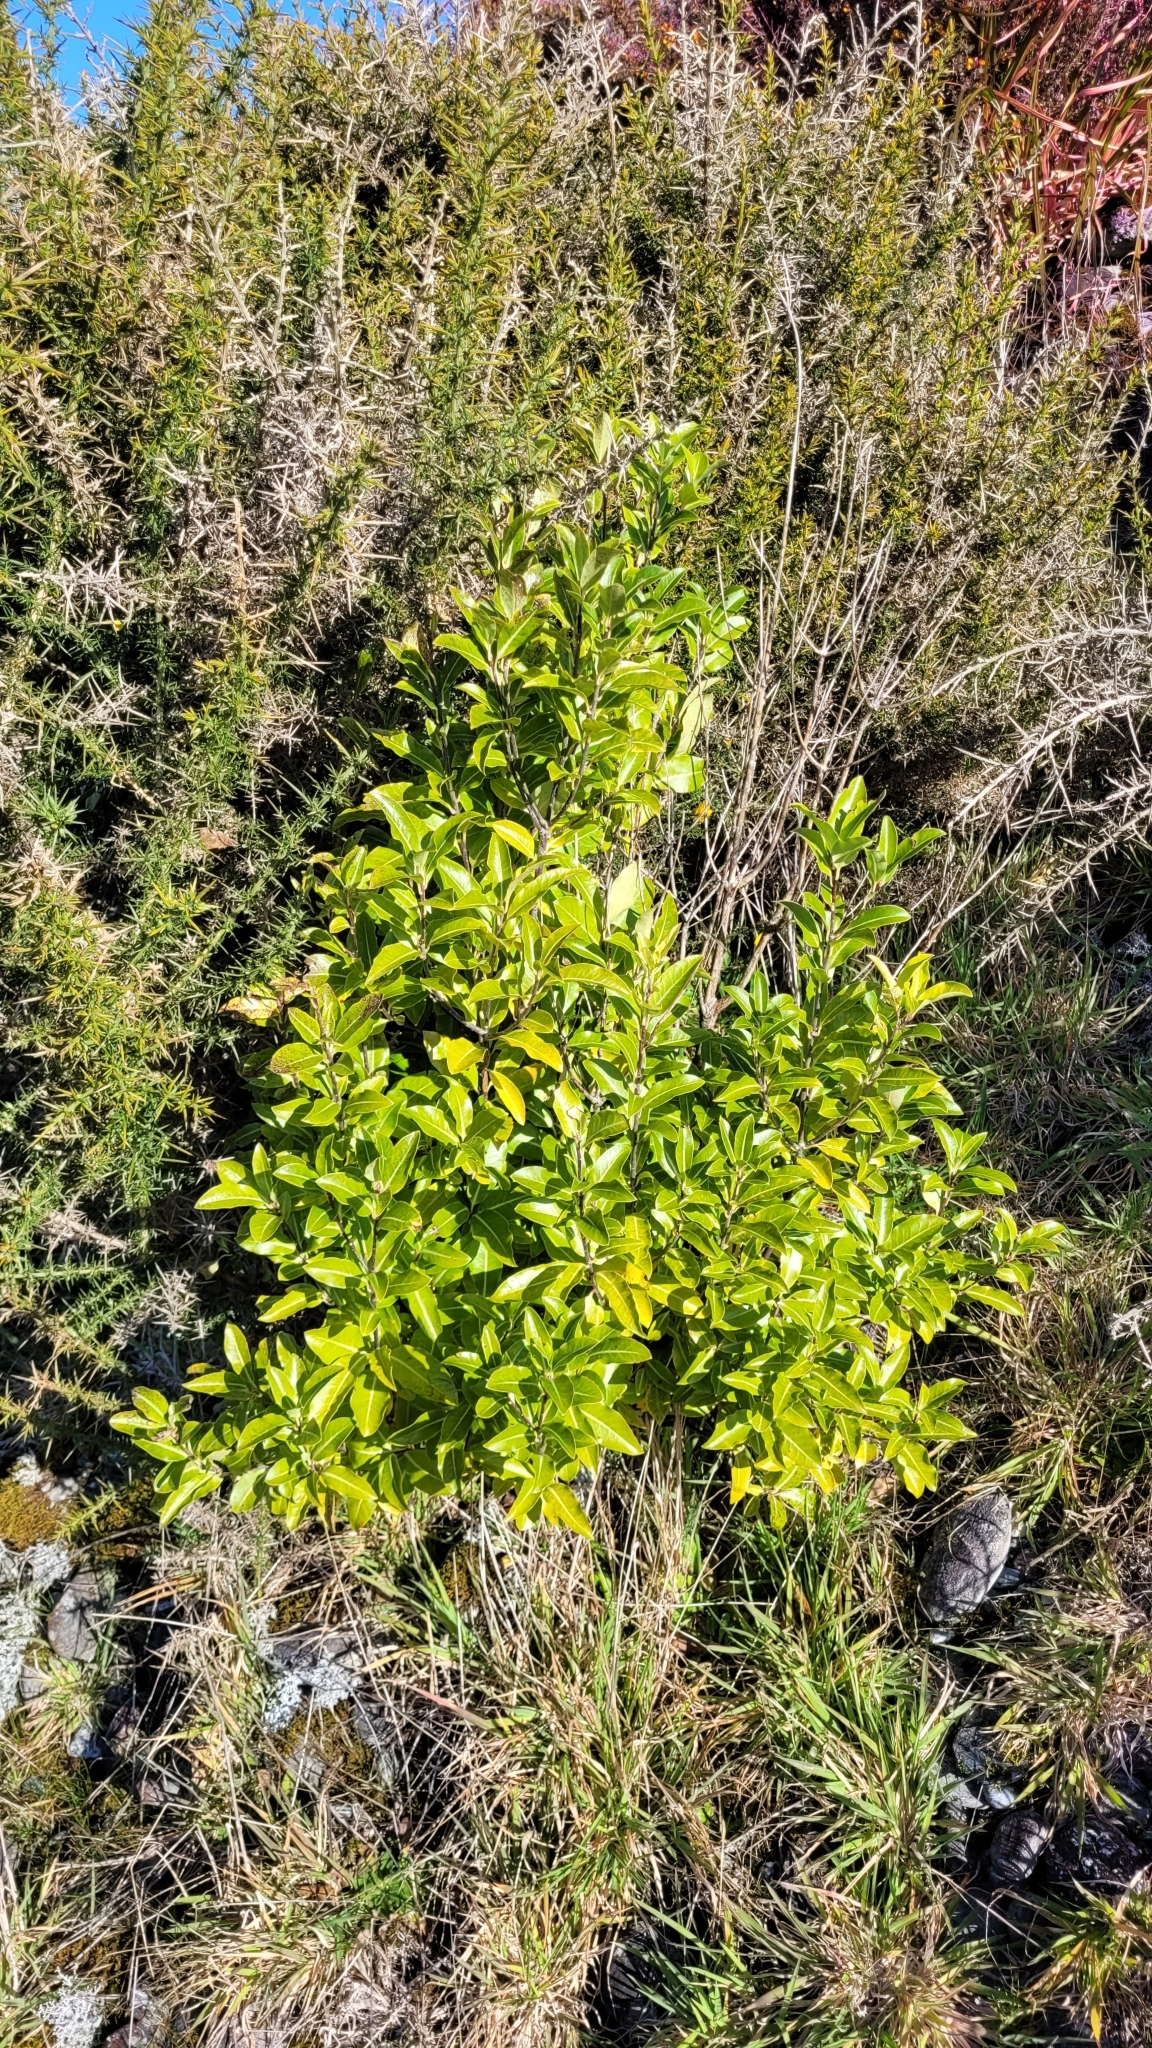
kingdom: Plantae
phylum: Tracheophyta
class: Magnoliopsida
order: Apiales
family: Pittosporaceae
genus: Pittosporum
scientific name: Pittosporum tenuifolium
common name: Kohuhu
